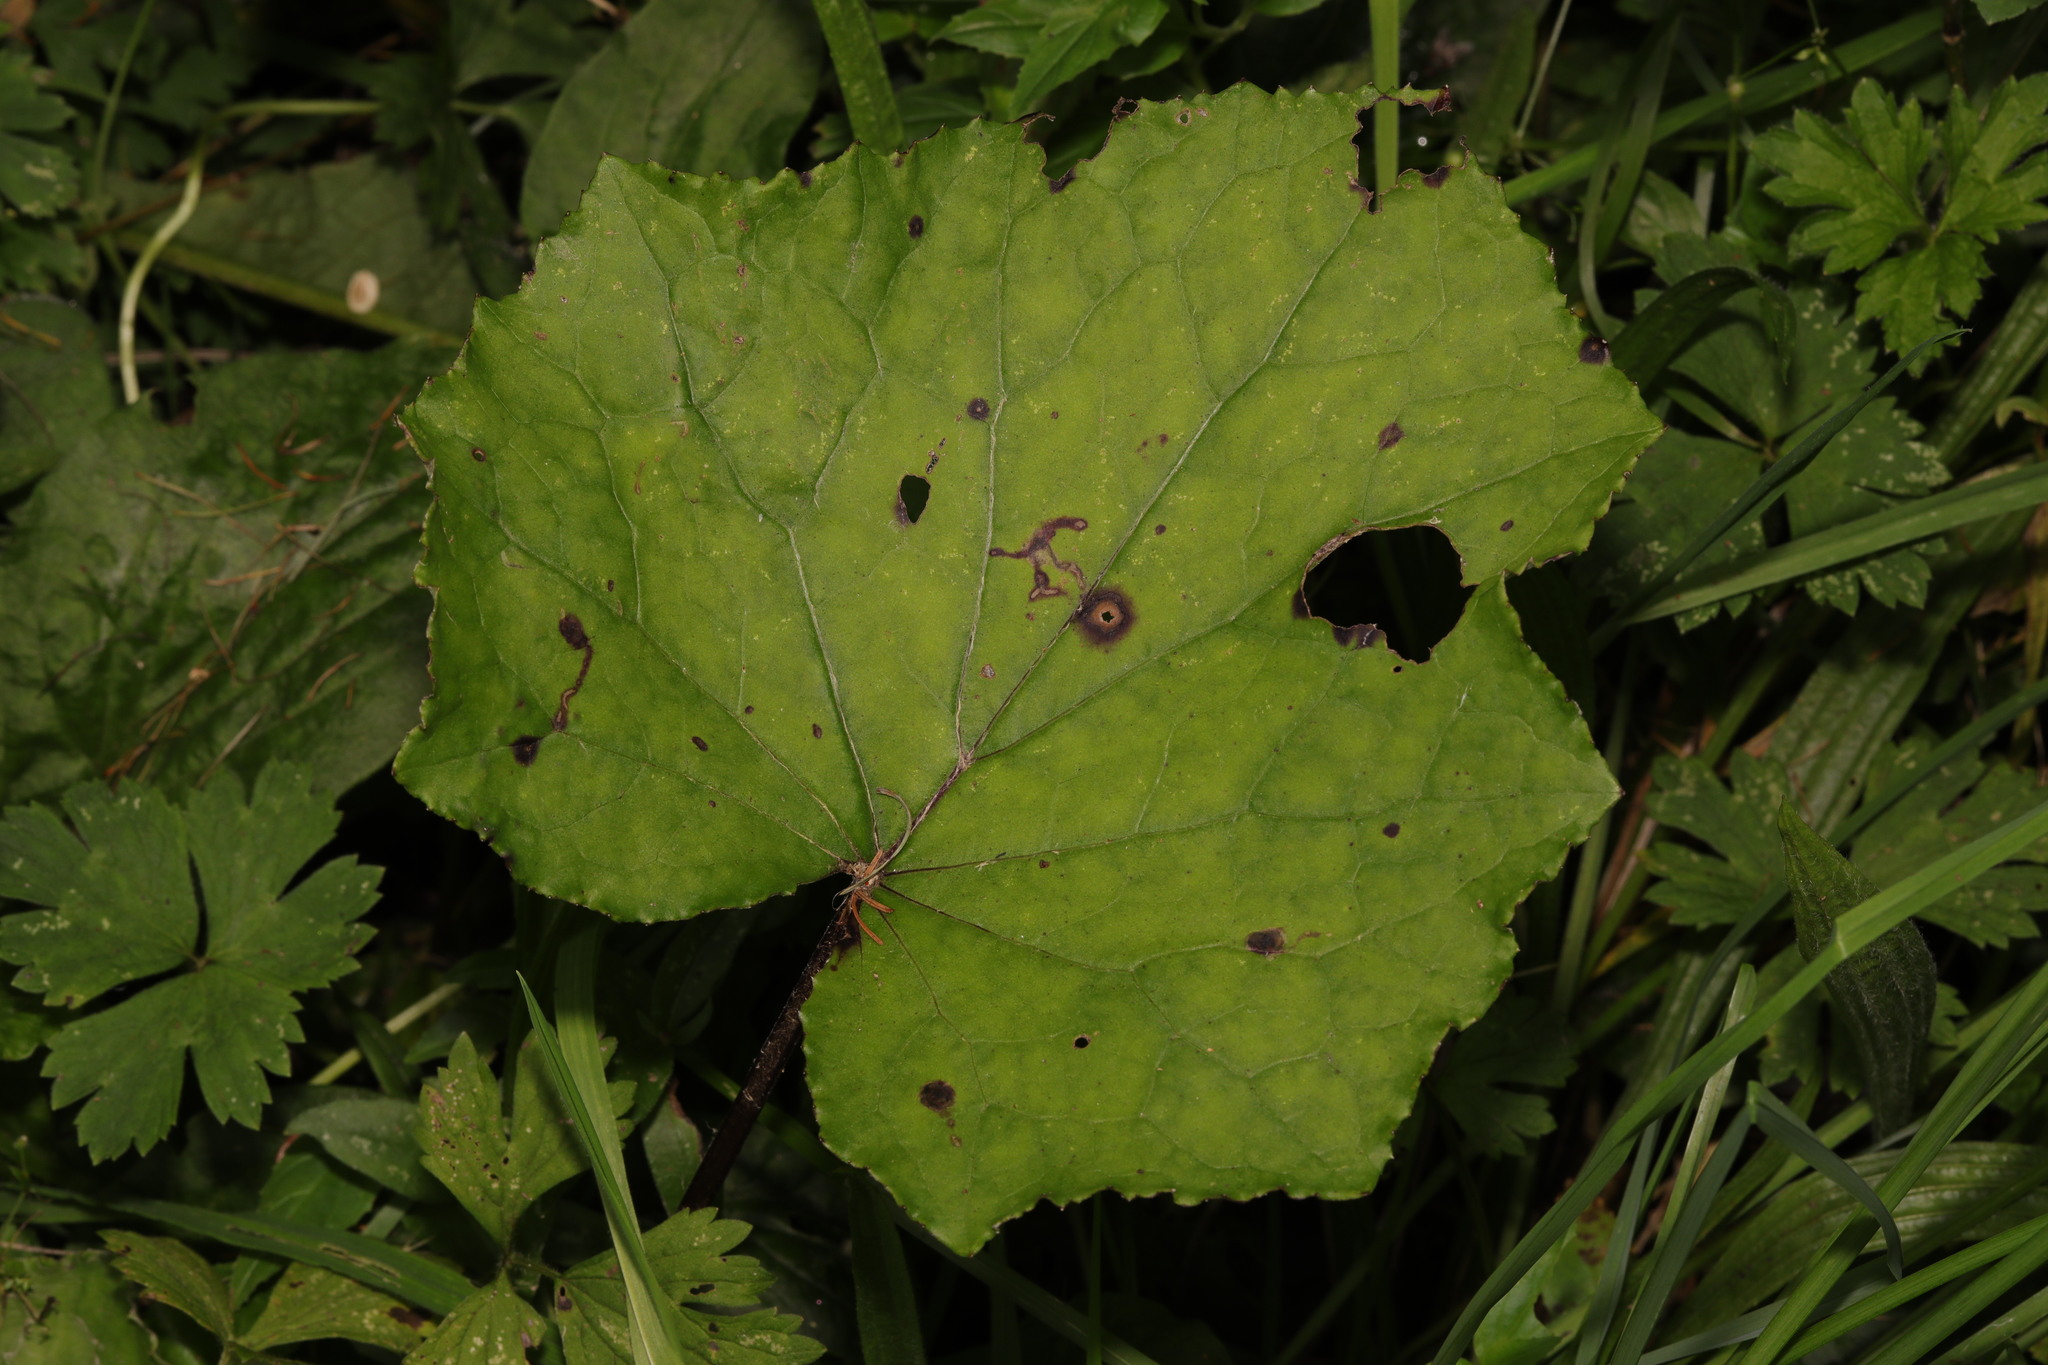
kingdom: Plantae
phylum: Tracheophyta
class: Magnoliopsida
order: Asterales
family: Asteraceae
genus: Tussilago
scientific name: Tussilago farfara
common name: Coltsfoot
